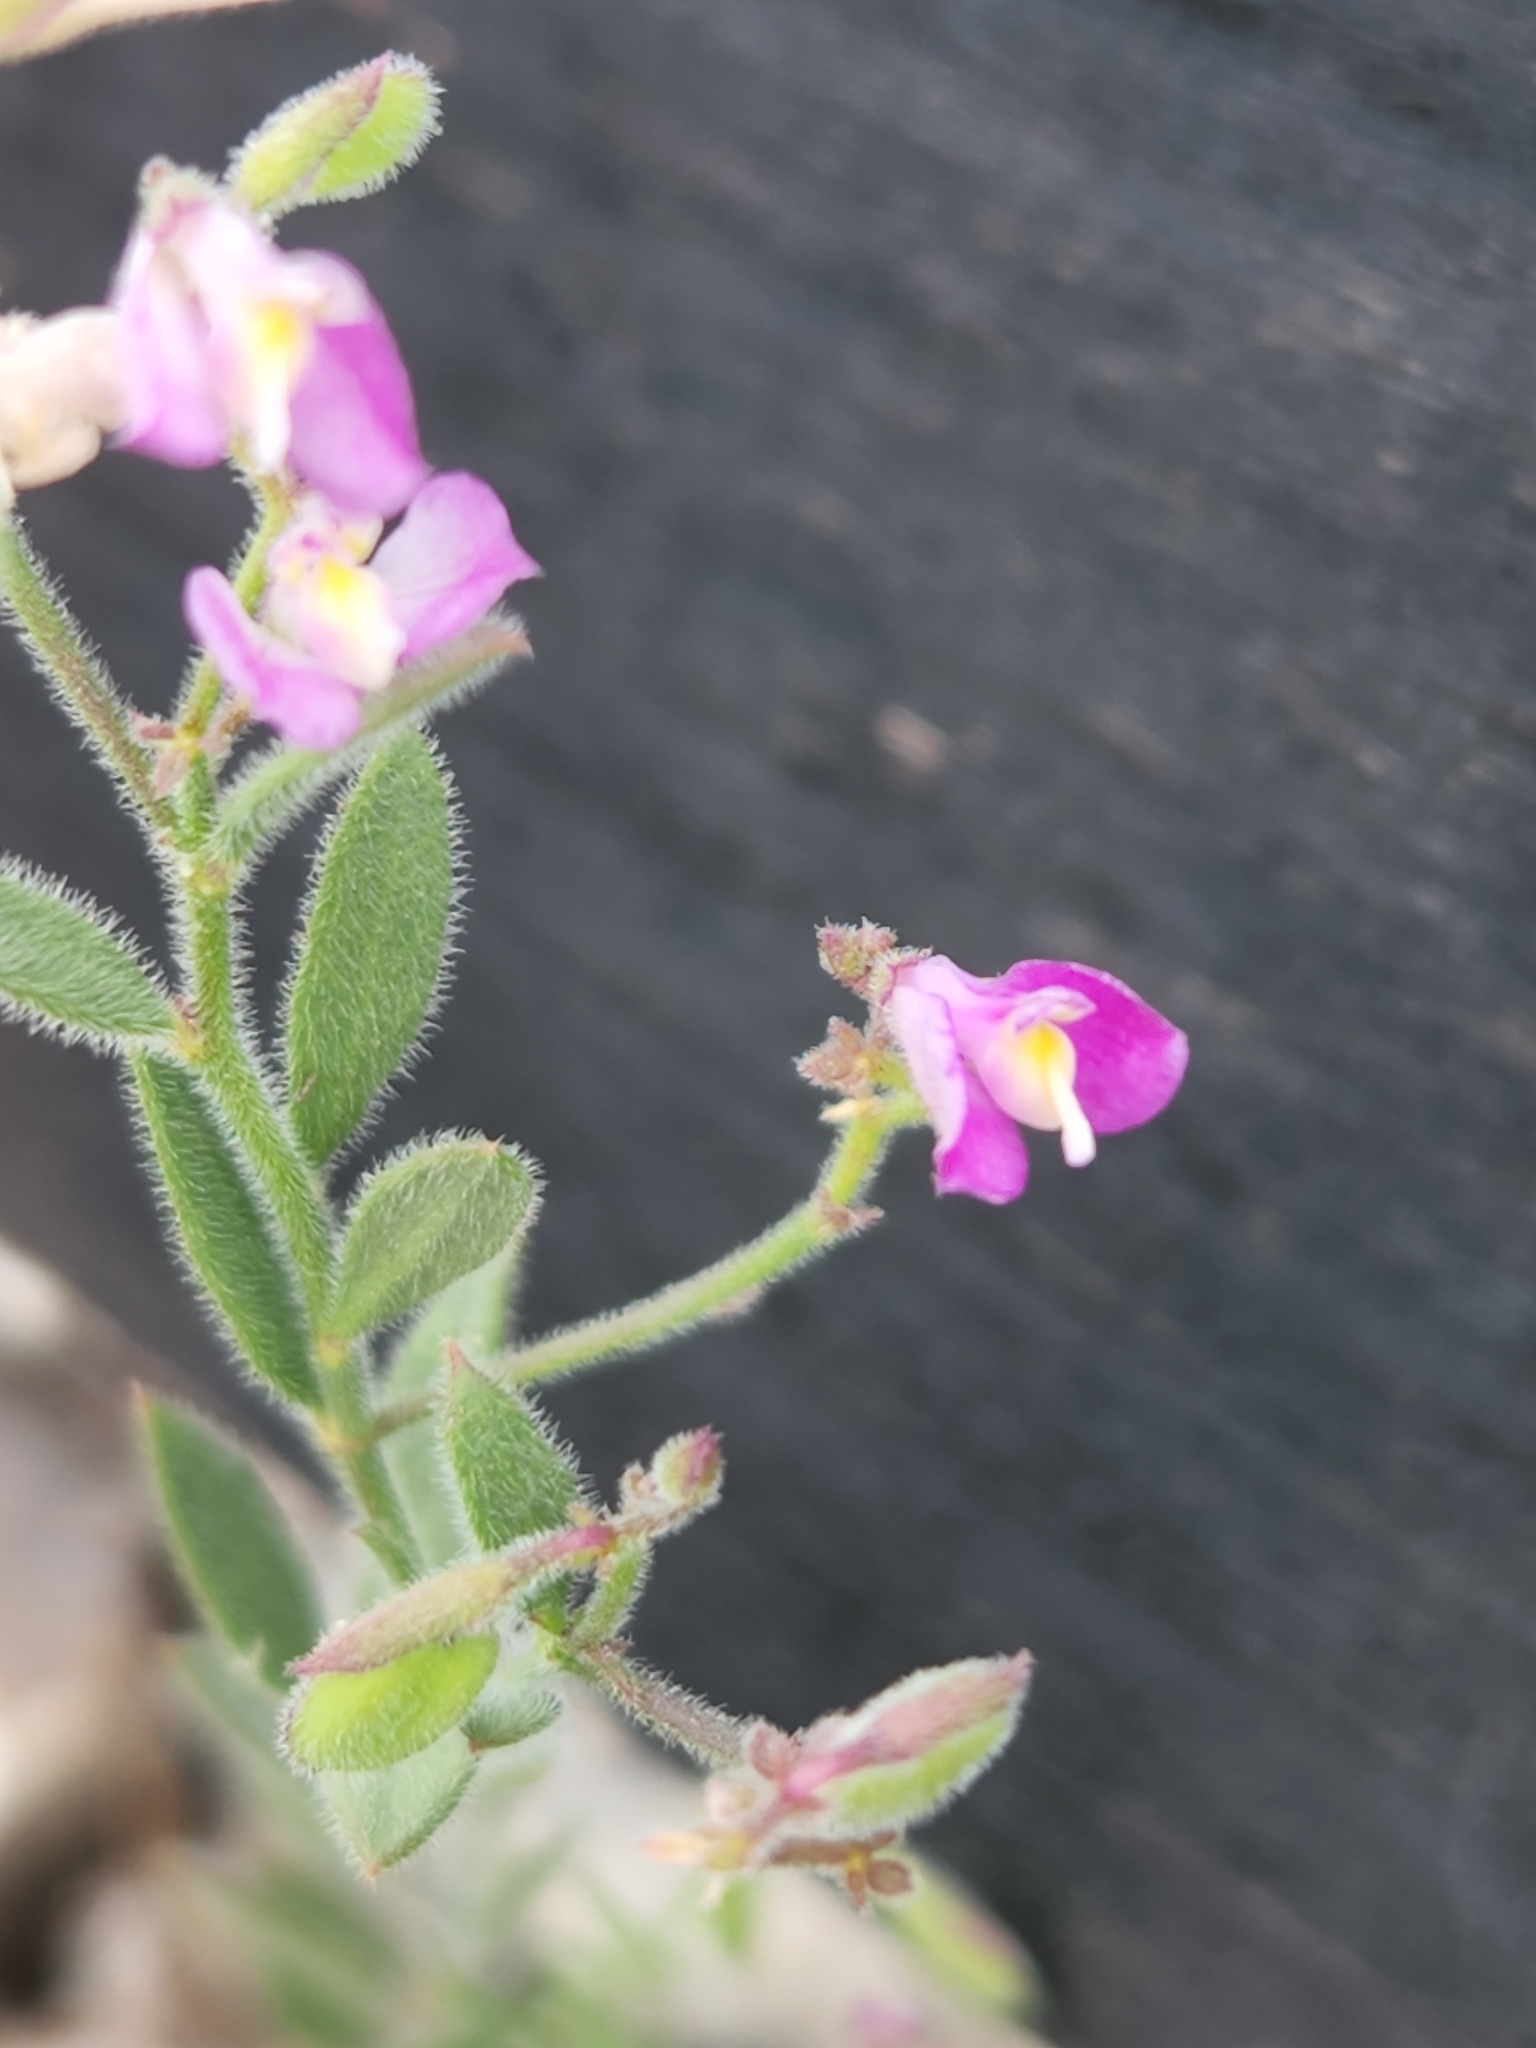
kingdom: Plantae
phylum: Tracheophyta
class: Magnoliopsida
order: Fabales
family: Polygalaceae
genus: Rhinotropis
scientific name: Rhinotropis lindheimeri
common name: Shrubby milkwort
